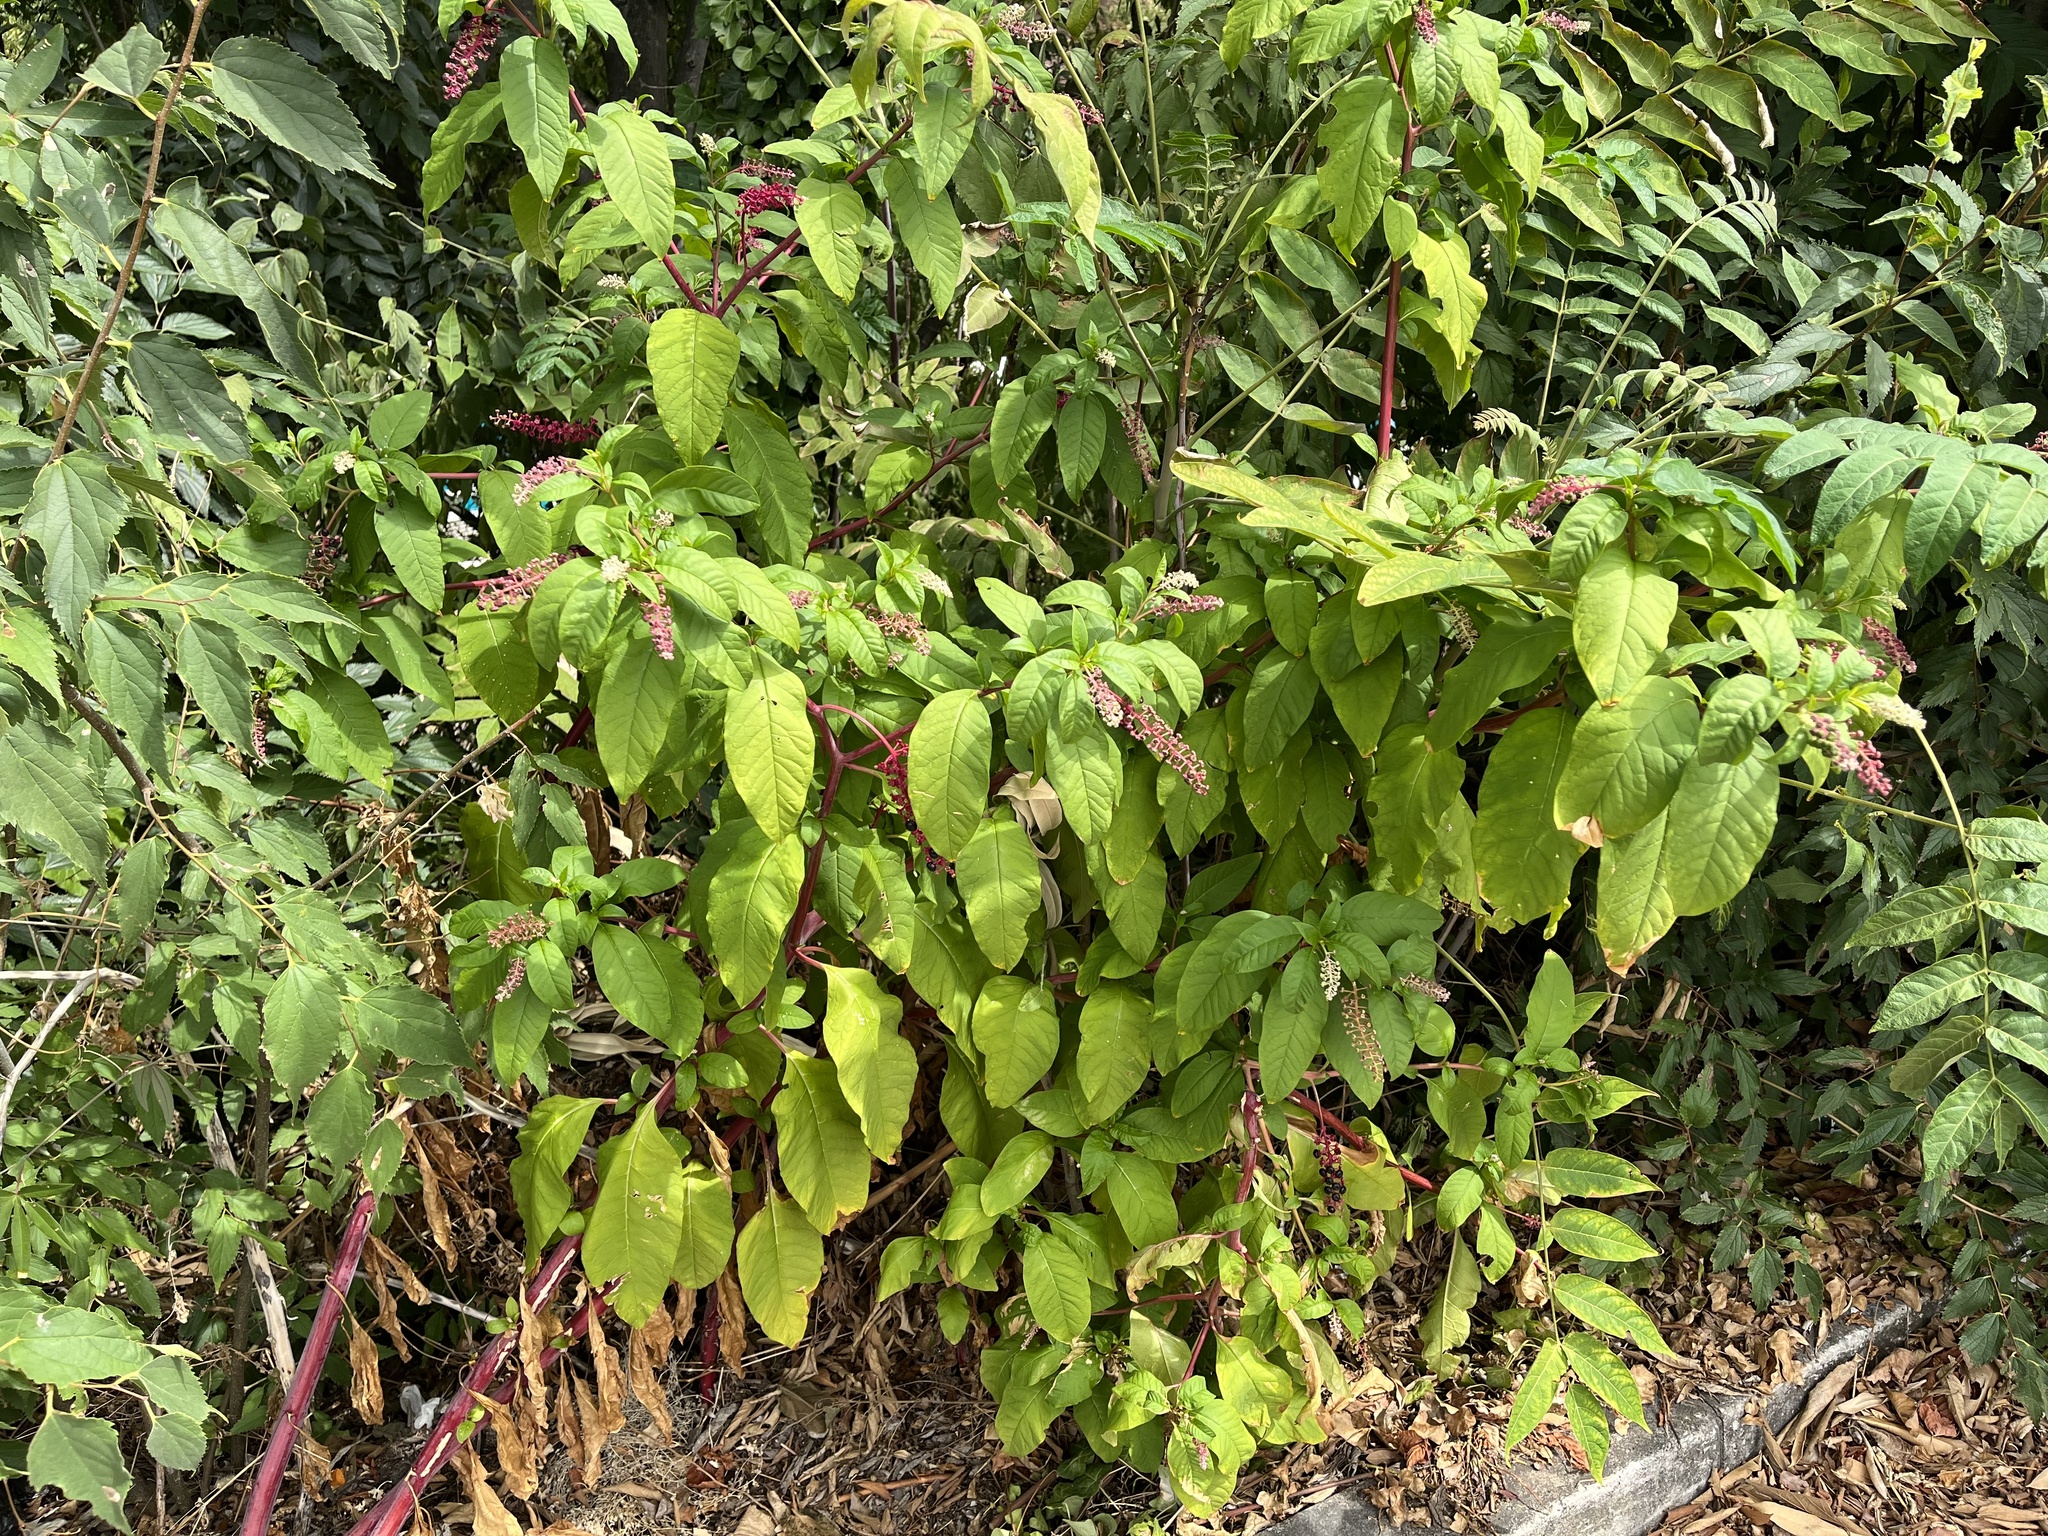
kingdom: Plantae
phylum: Tracheophyta
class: Magnoliopsida
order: Caryophyllales
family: Phytolaccaceae
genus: Phytolacca
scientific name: Phytolacca americana
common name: American pokeweed
